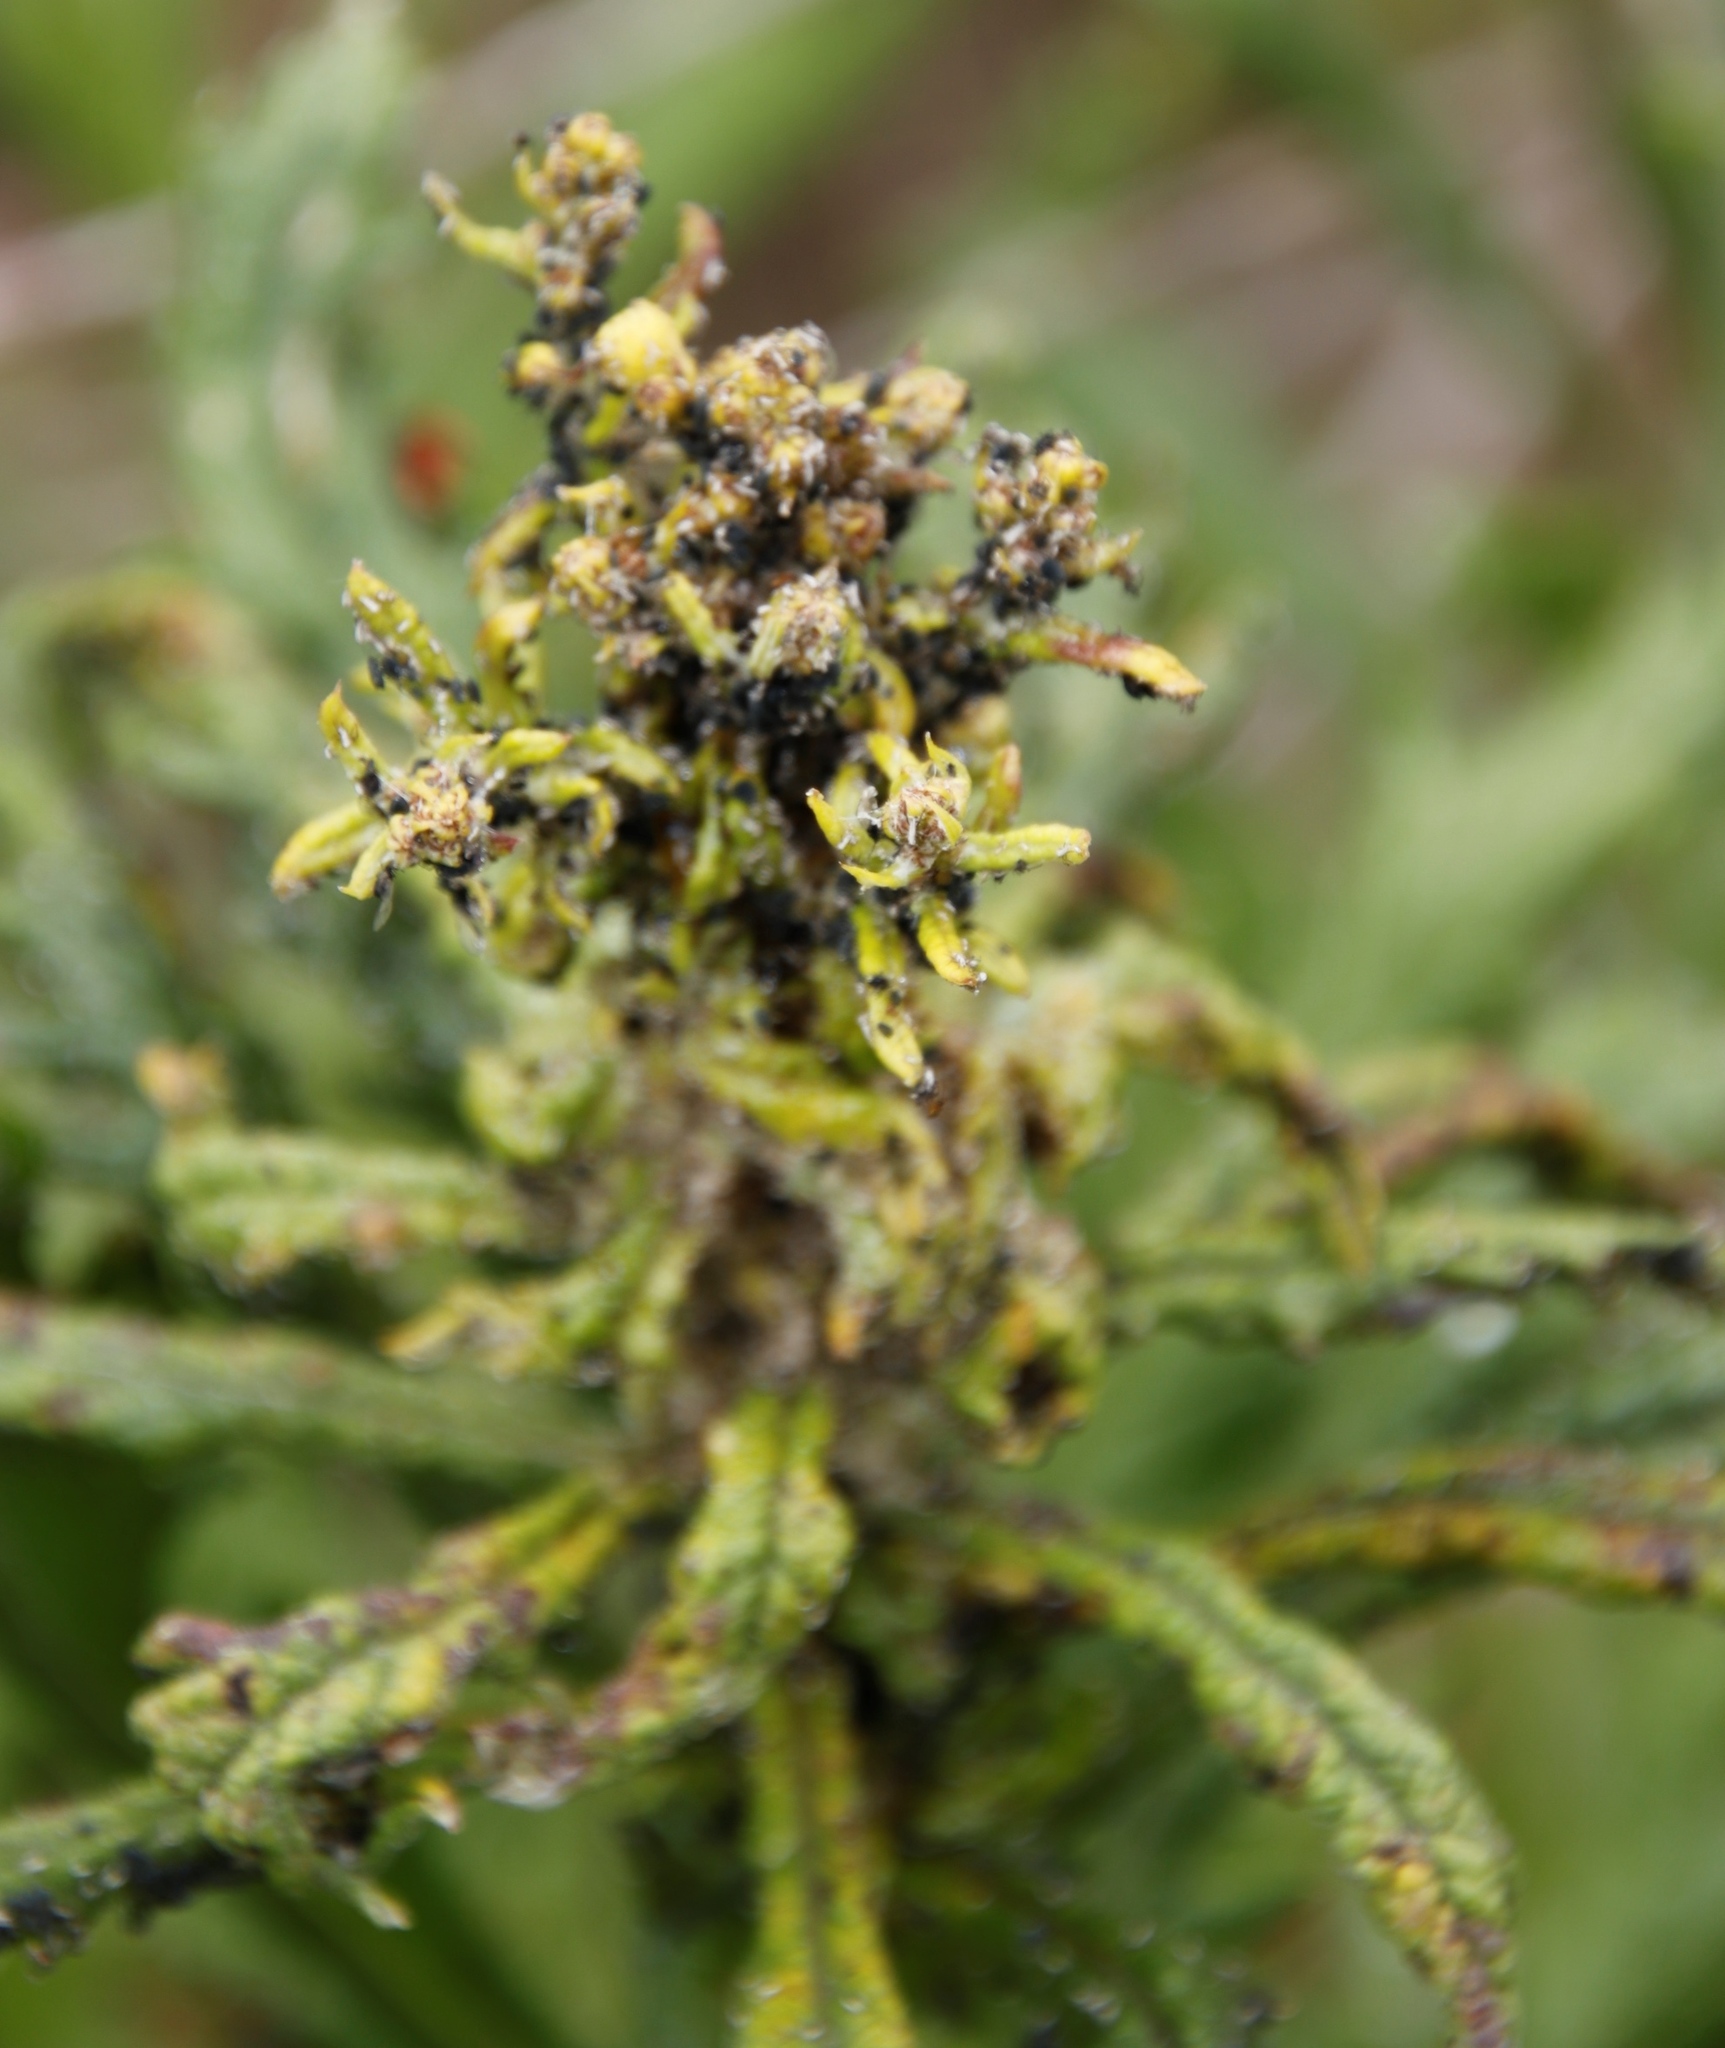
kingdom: Plantae
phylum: Tracheophyta
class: Magnoliopsida
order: Asterales
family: Asteraceae
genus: Senecio
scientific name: Senecio pterophorus
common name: Shoddy ragwort
